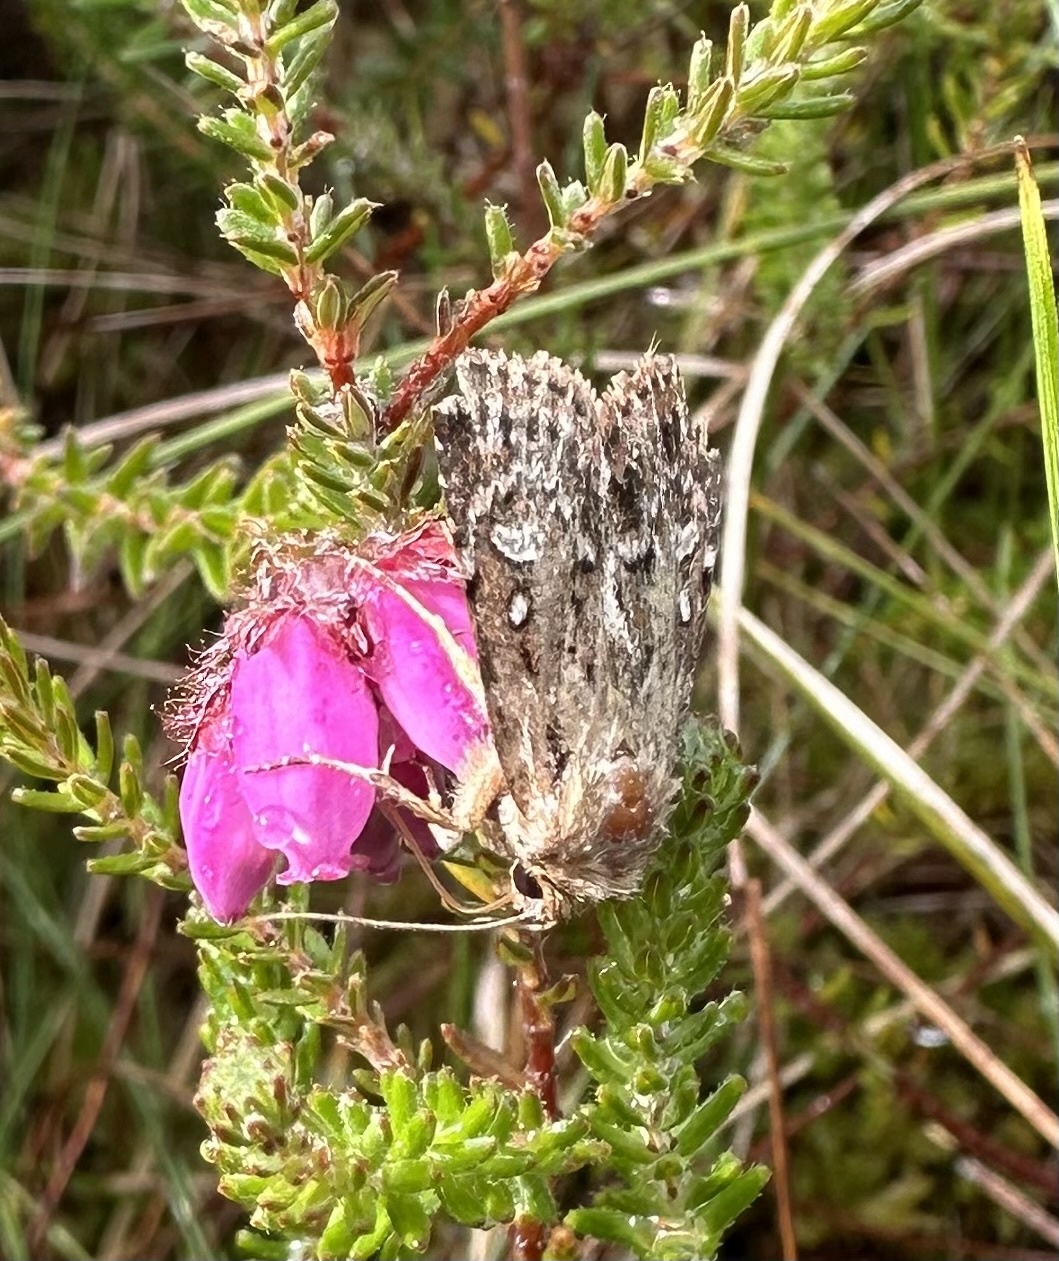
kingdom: Animalia
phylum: Arthropoda
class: Insecta
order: Lepidoptera
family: Noctuidae
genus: Lycophotia
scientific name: Lycophotia porphyrea
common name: True lover's knot
